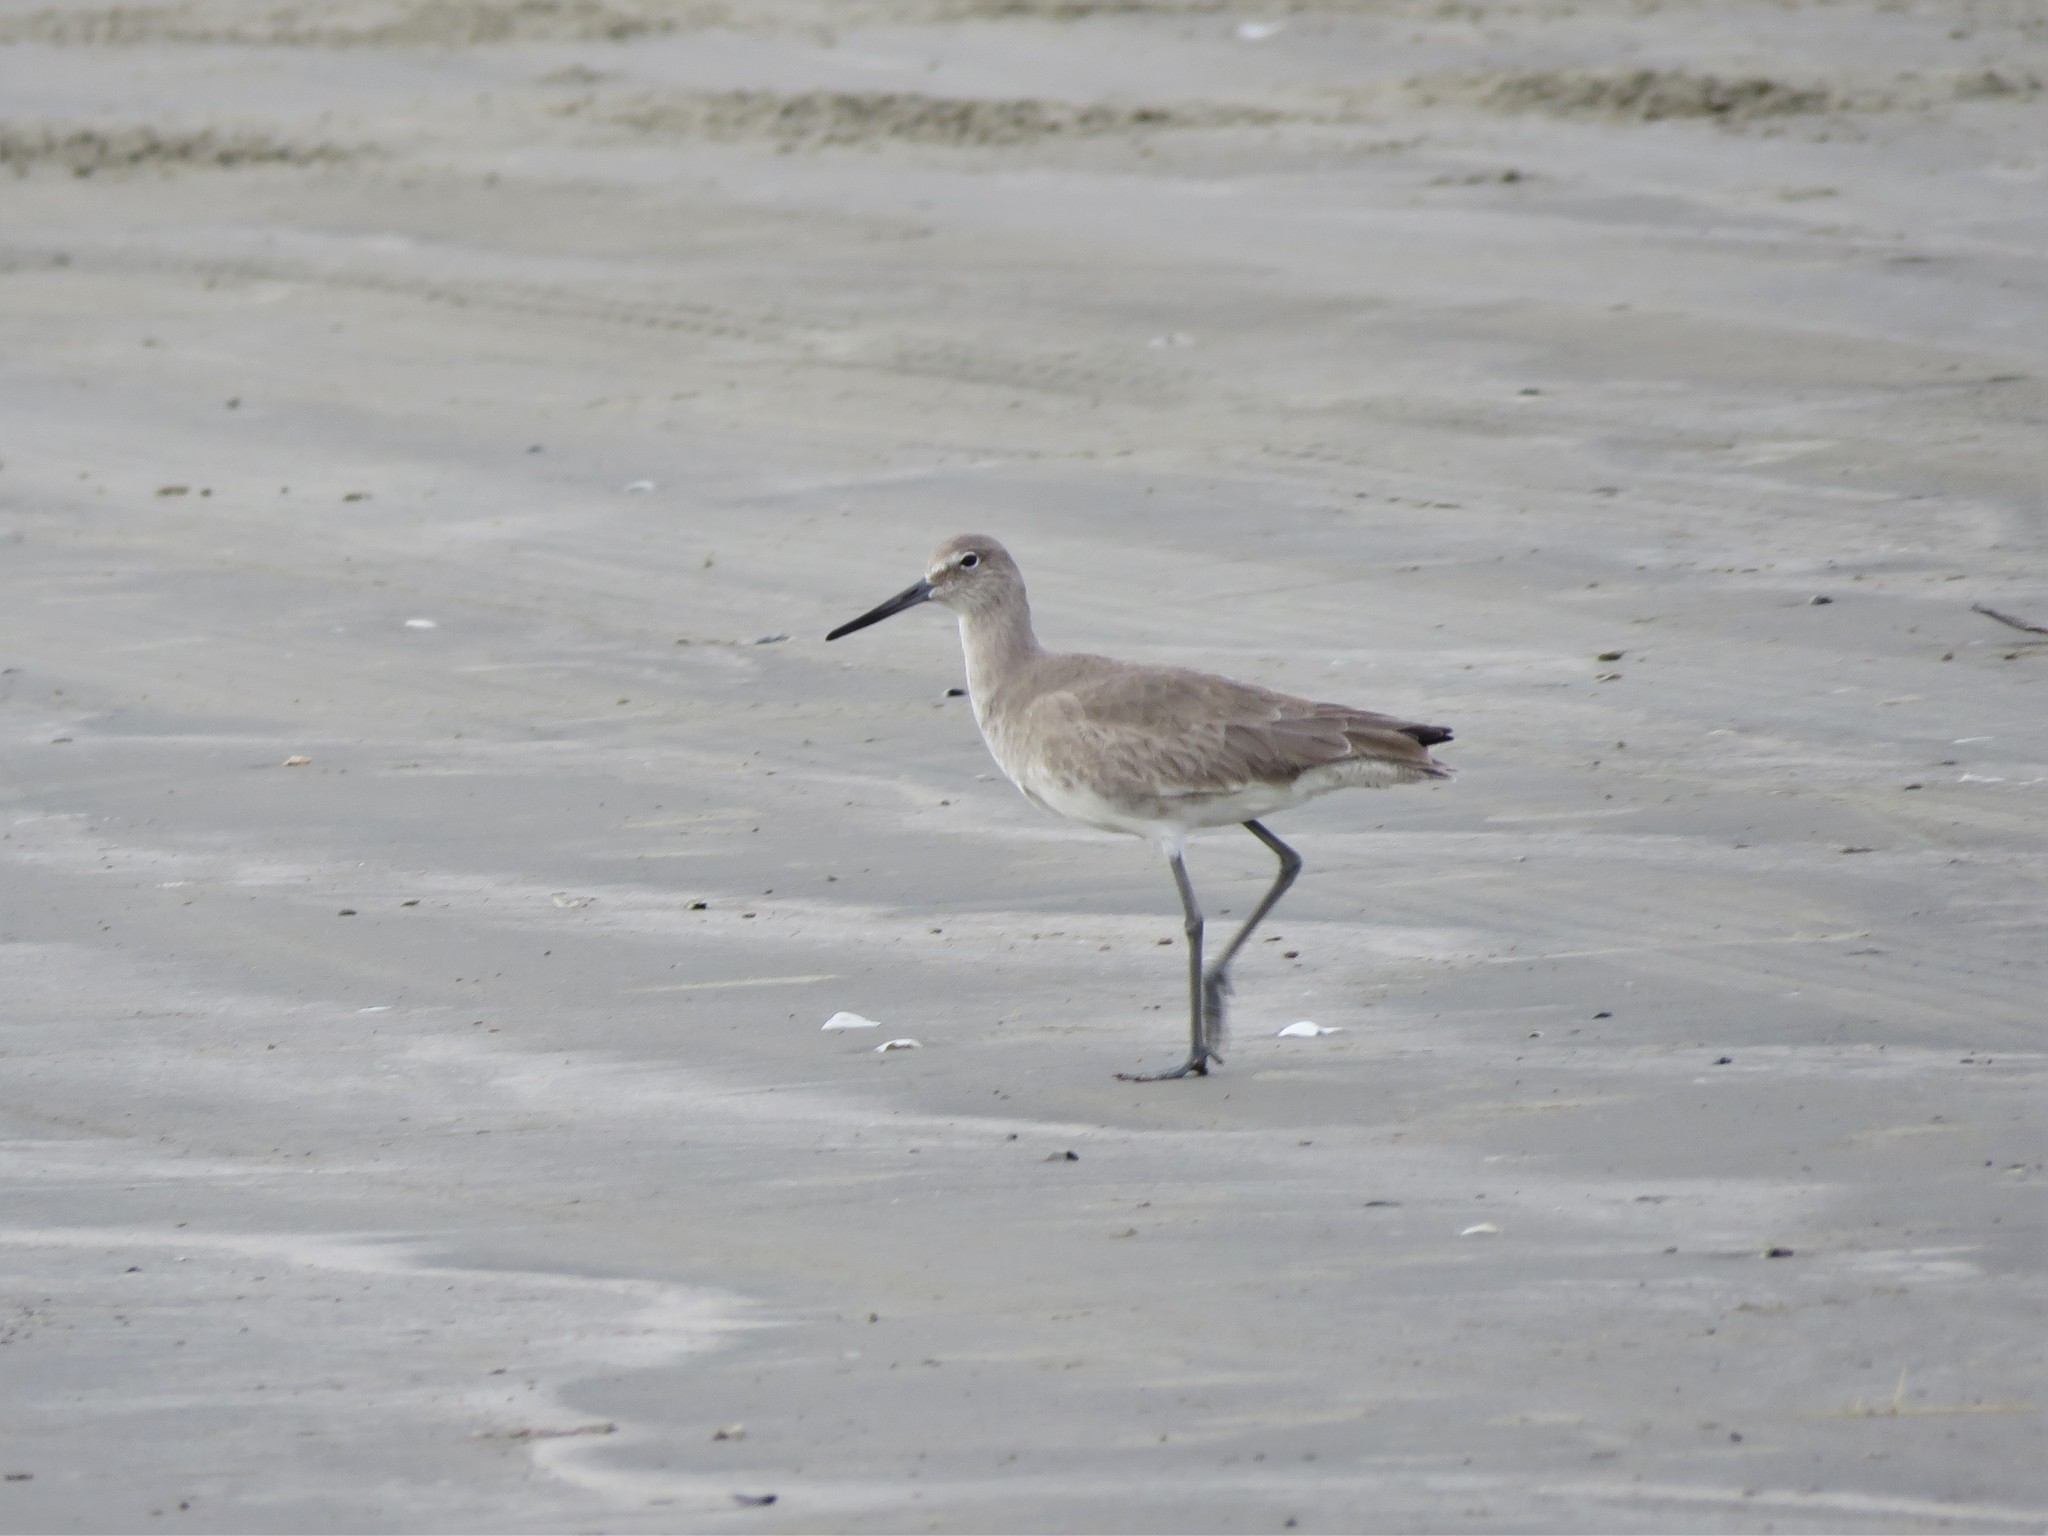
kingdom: Animalia
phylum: Chordata
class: Aves
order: Charadriiformes
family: Scolopacidae
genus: Tringa
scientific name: Tringa semipalmata
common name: Willet
